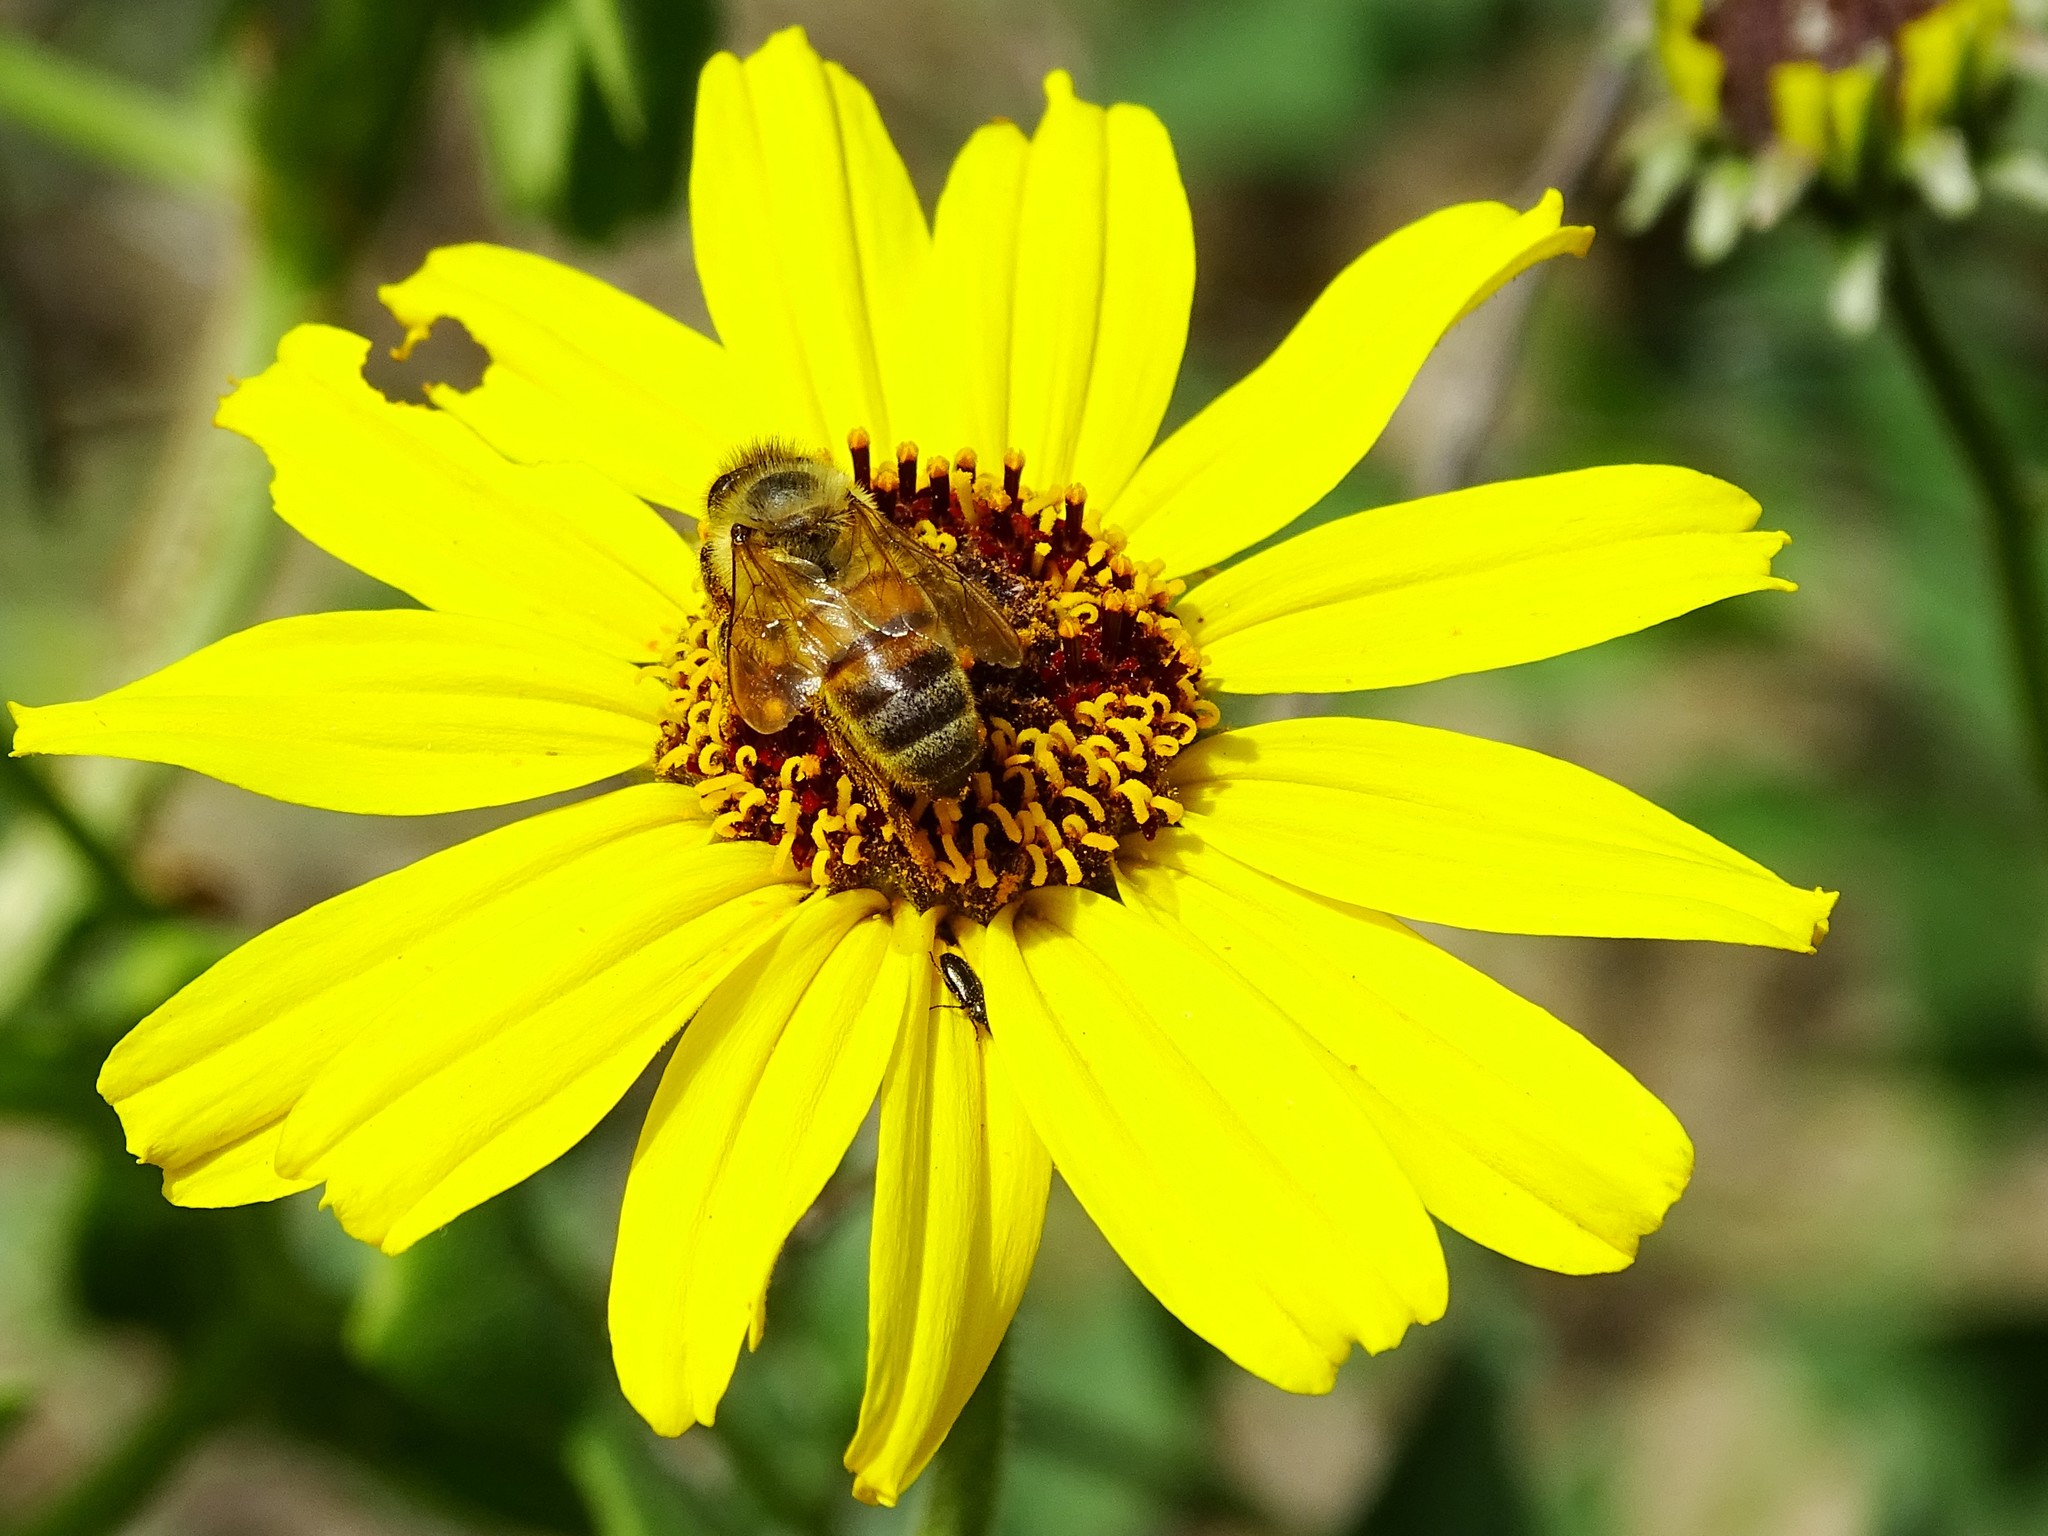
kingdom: Animalia
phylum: Arthropoda
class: Insecta
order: Hymenoptera
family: Apidae
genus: Apis
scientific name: Apis mellifera
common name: Honey bee
